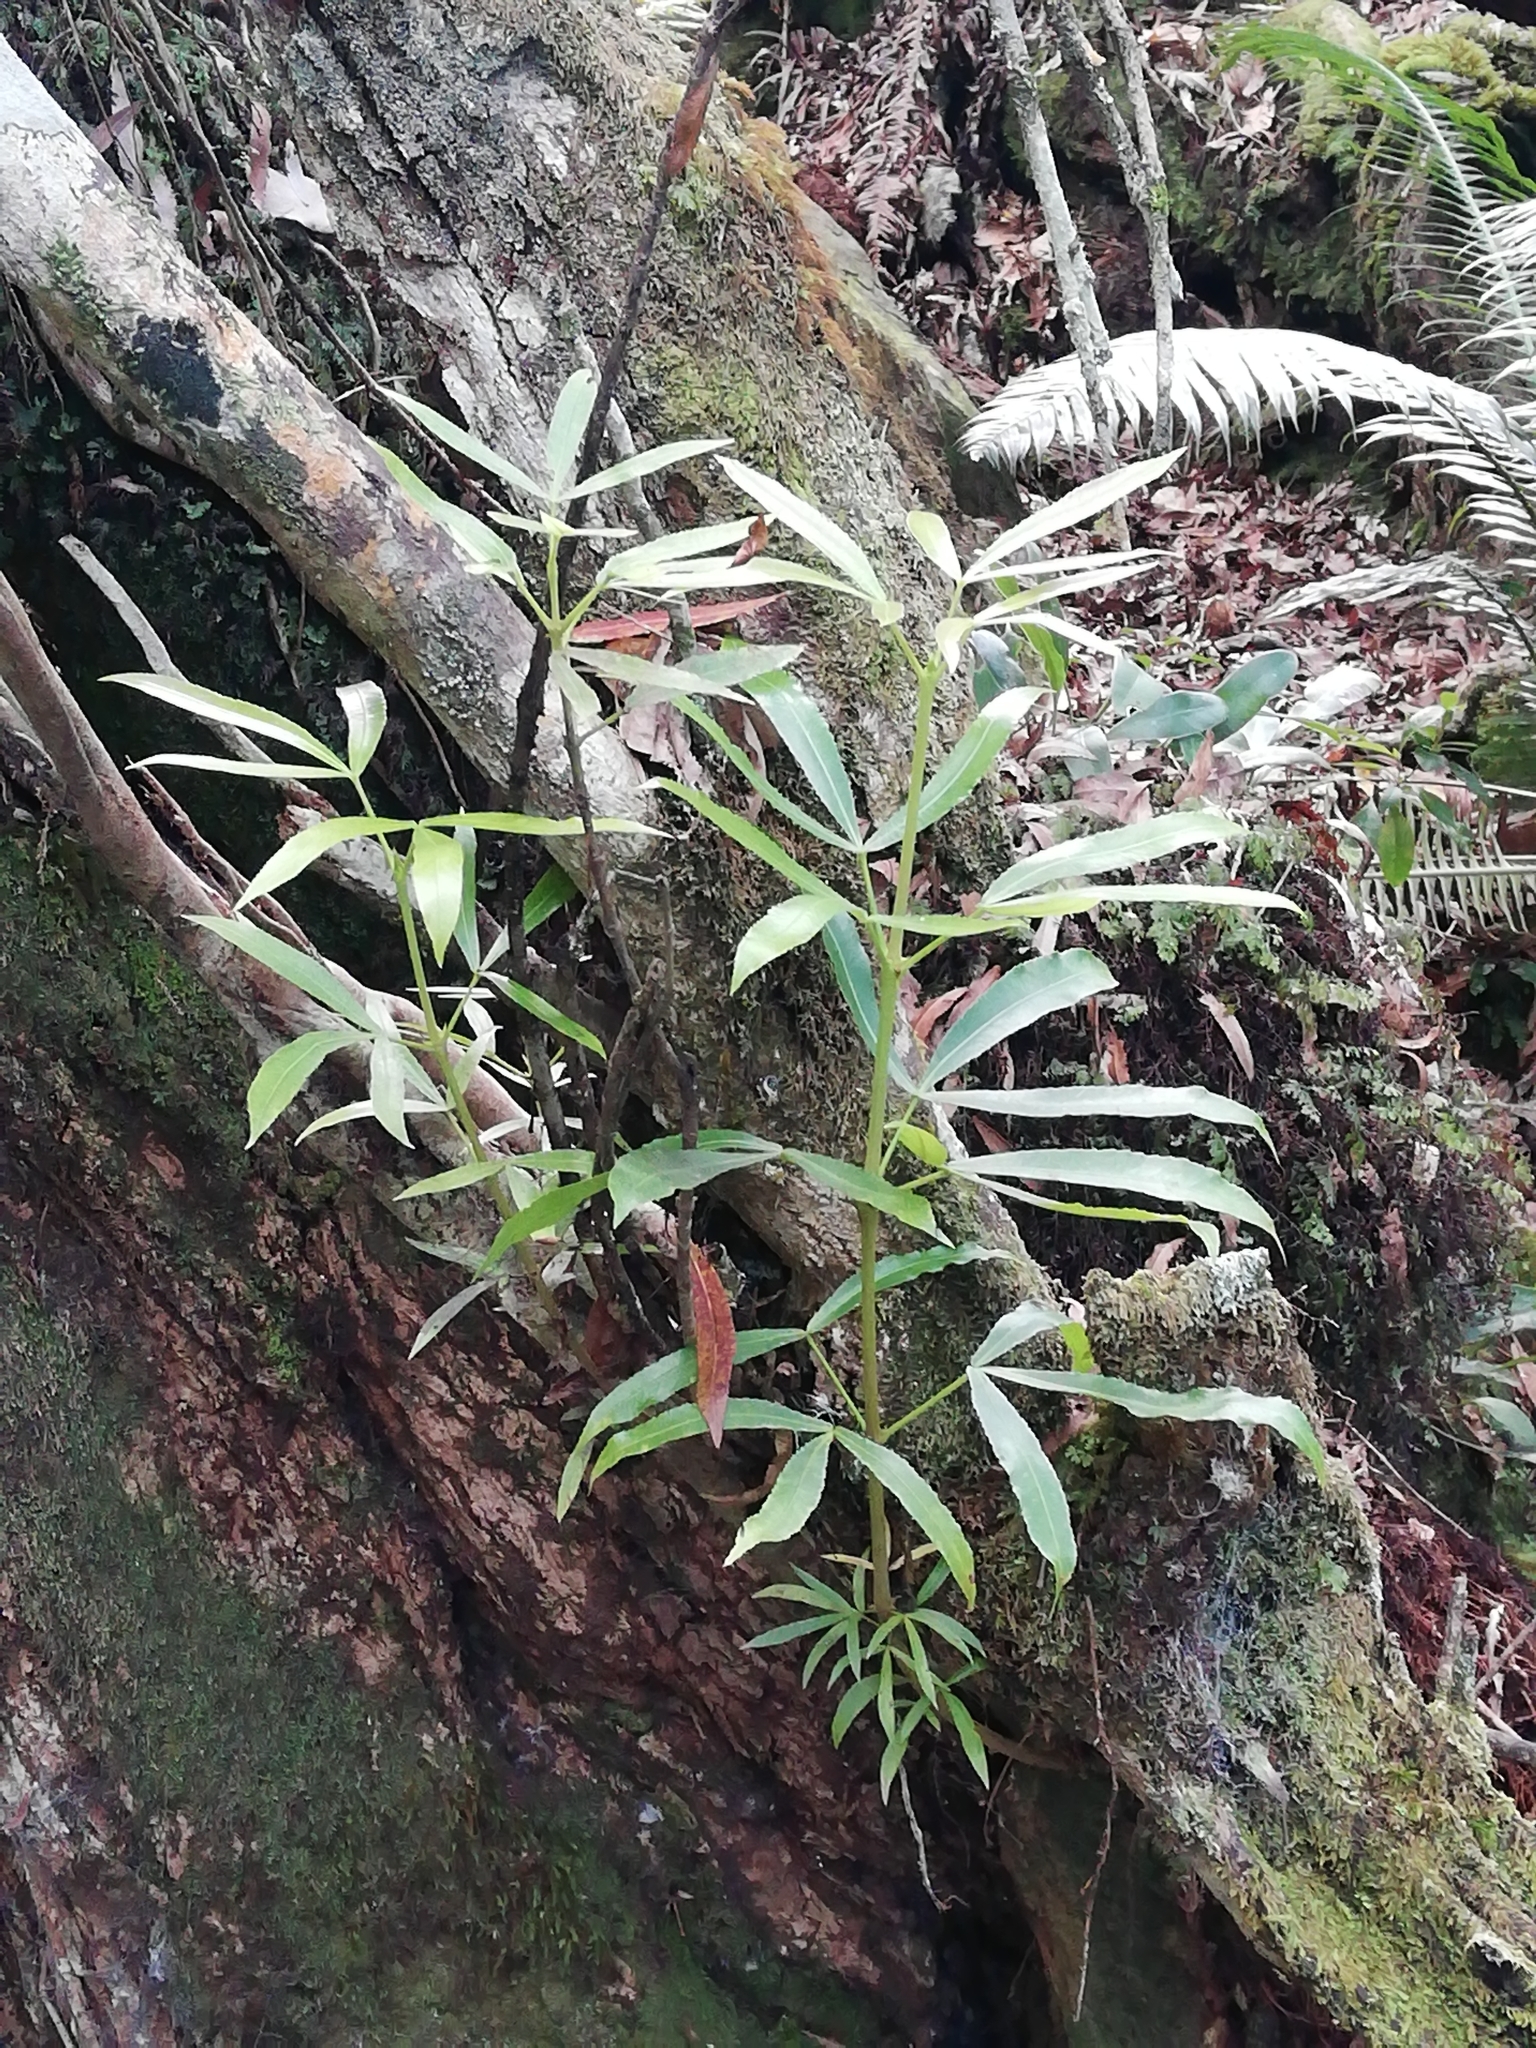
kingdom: Plantae
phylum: Tracheophyta
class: Magnoliopsida
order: Oxalidales
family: Cunoniaceae
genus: Platylophus
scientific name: Platylophus trifoliatus
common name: White alder
